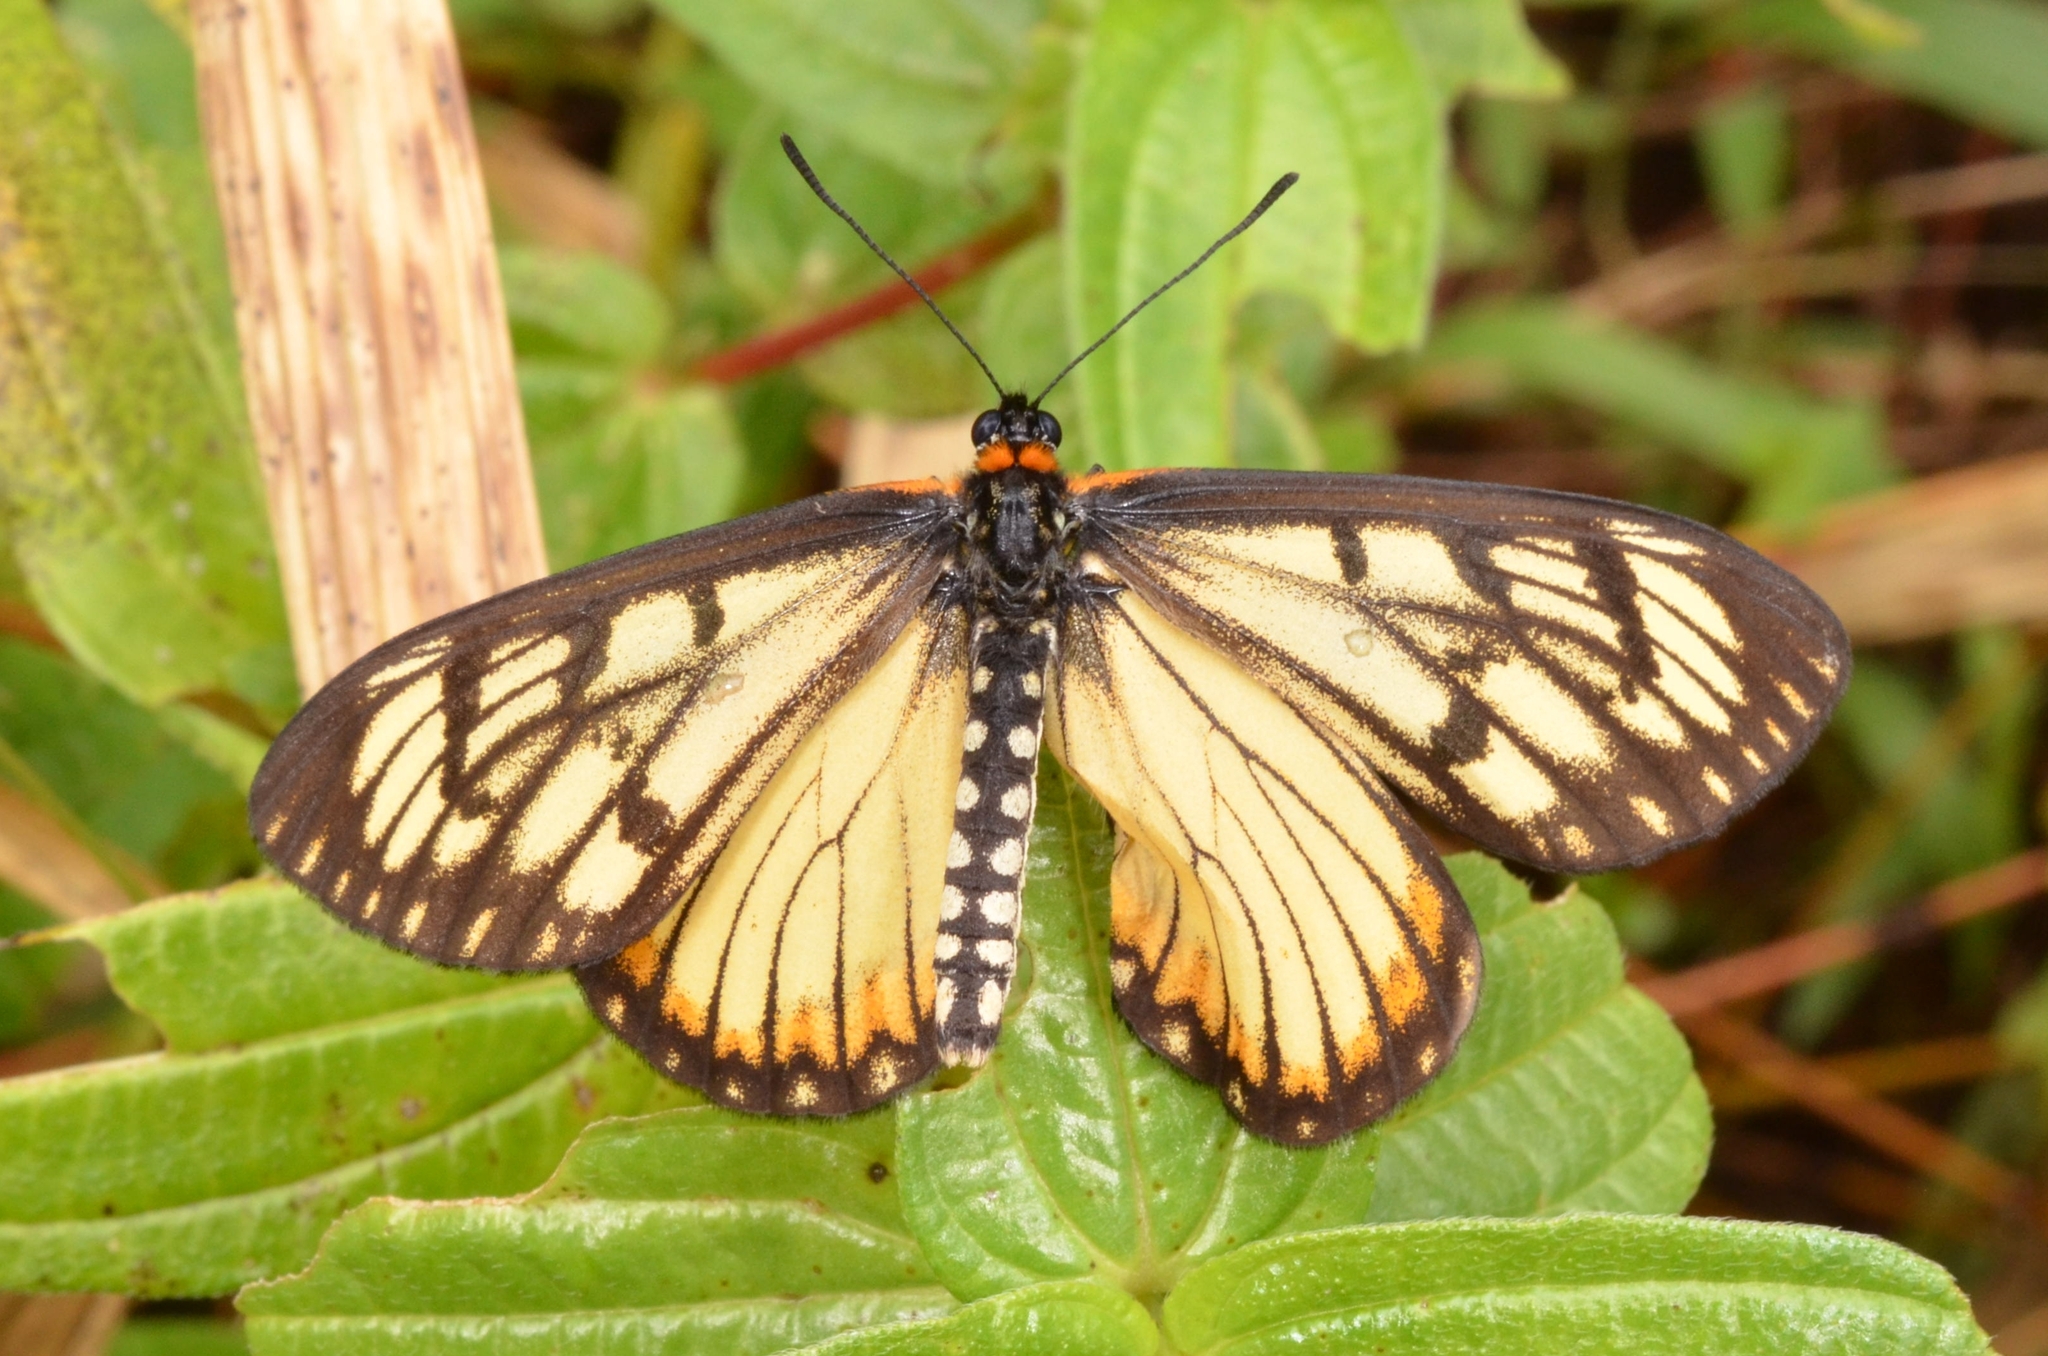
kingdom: Animalia
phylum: Arthropoda
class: Insecta
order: Lepidoptera
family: Nymphalidae
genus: Acraea
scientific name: Acraea Telchinia issoria
